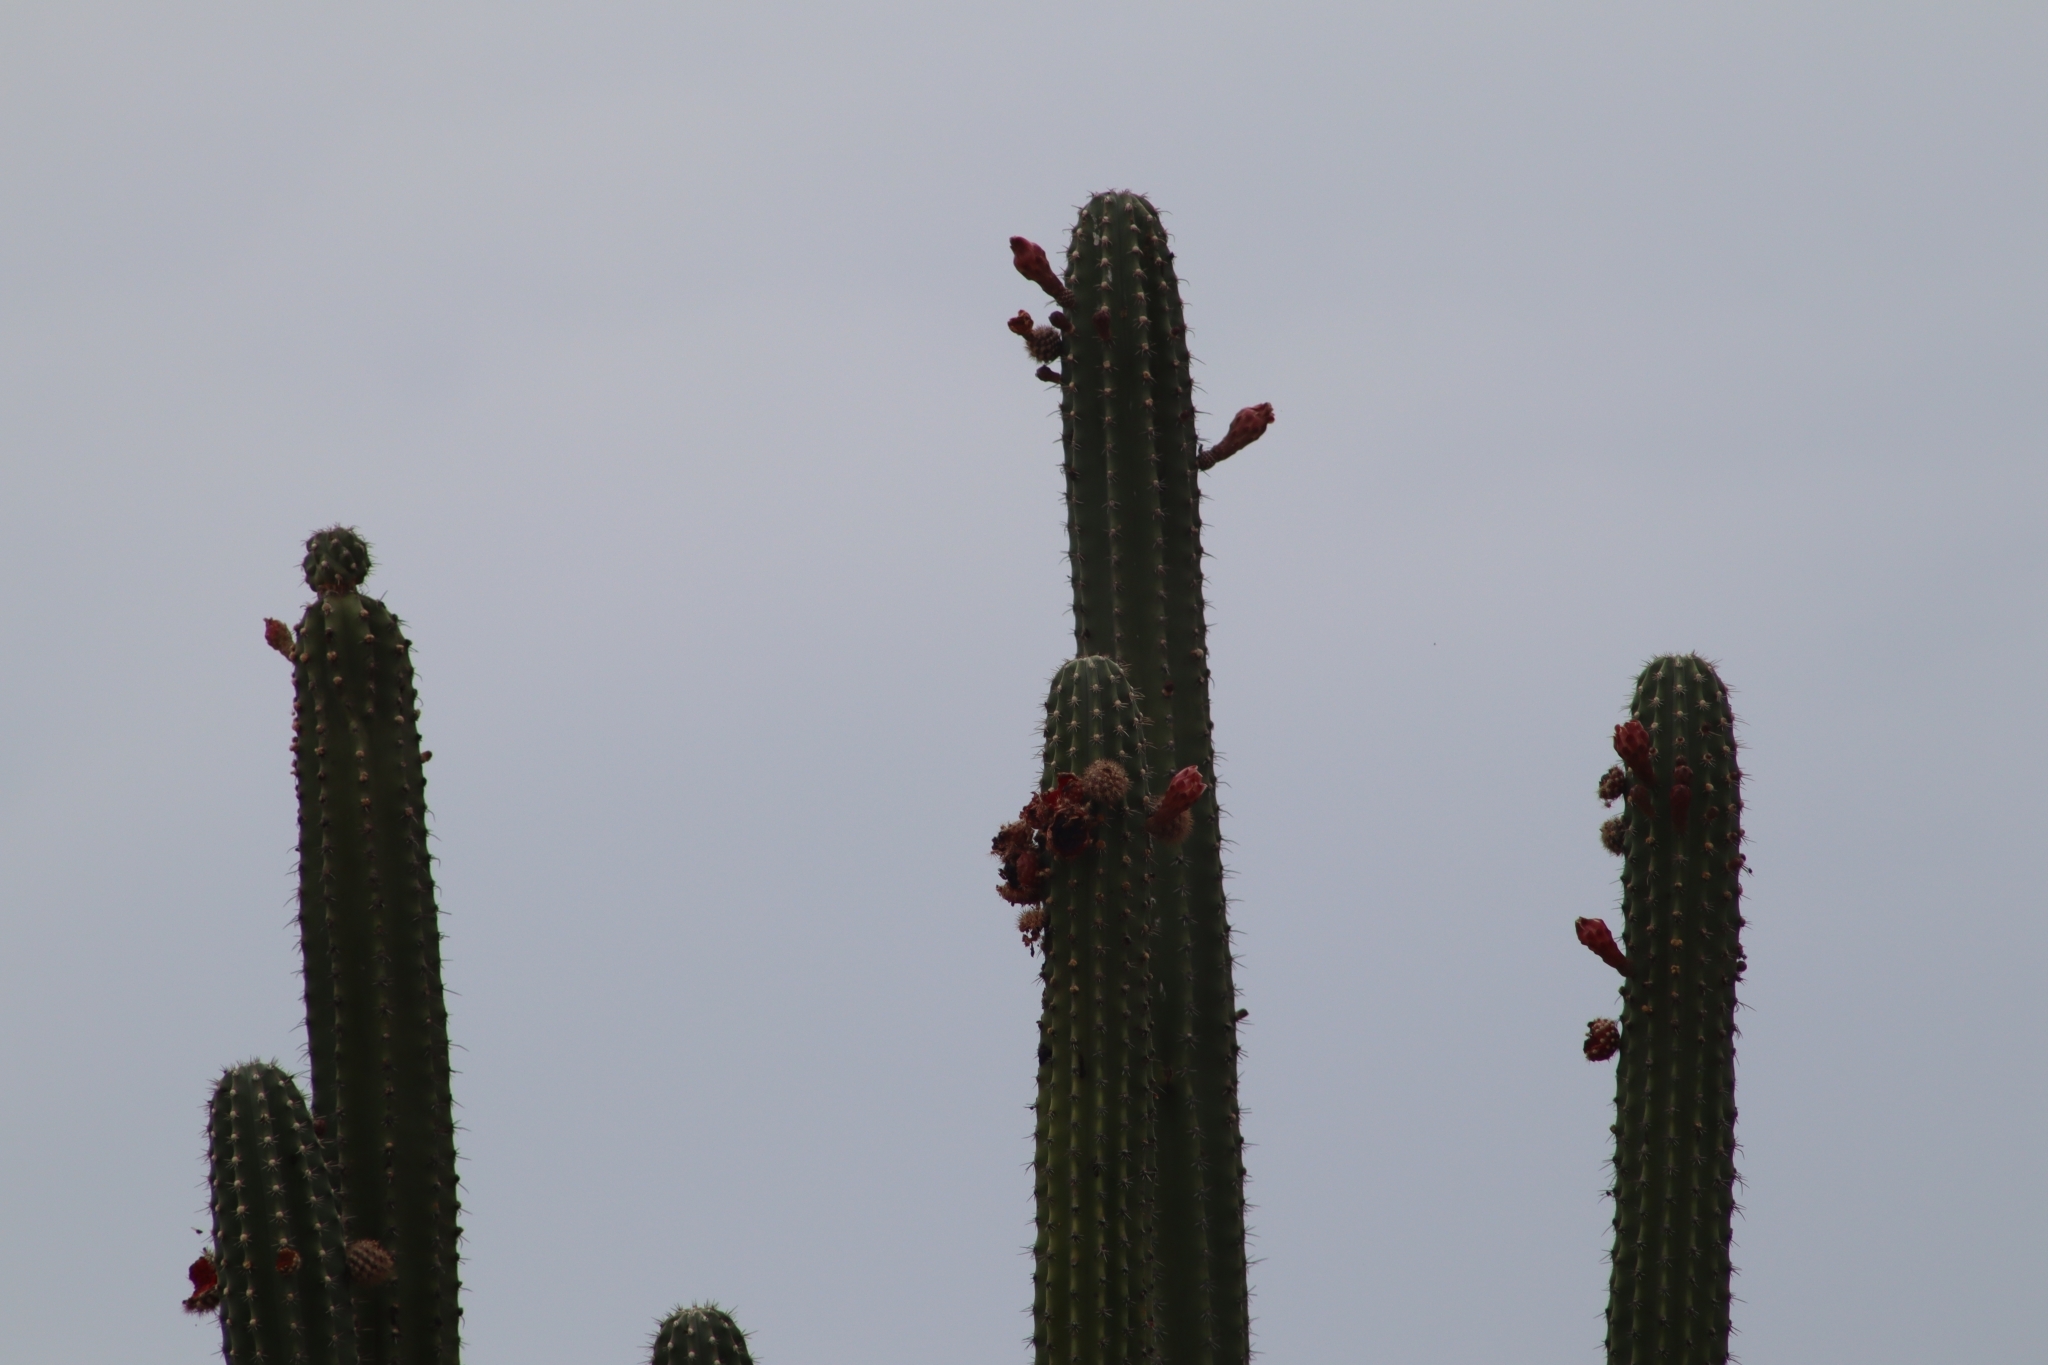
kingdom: Plantae
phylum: Tracheophyta
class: Magnoliopsida
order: Caryophyllales
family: Cactaceae
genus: Stenocereus
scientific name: Stenocereus griseus
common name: Tall candelabra cactus
